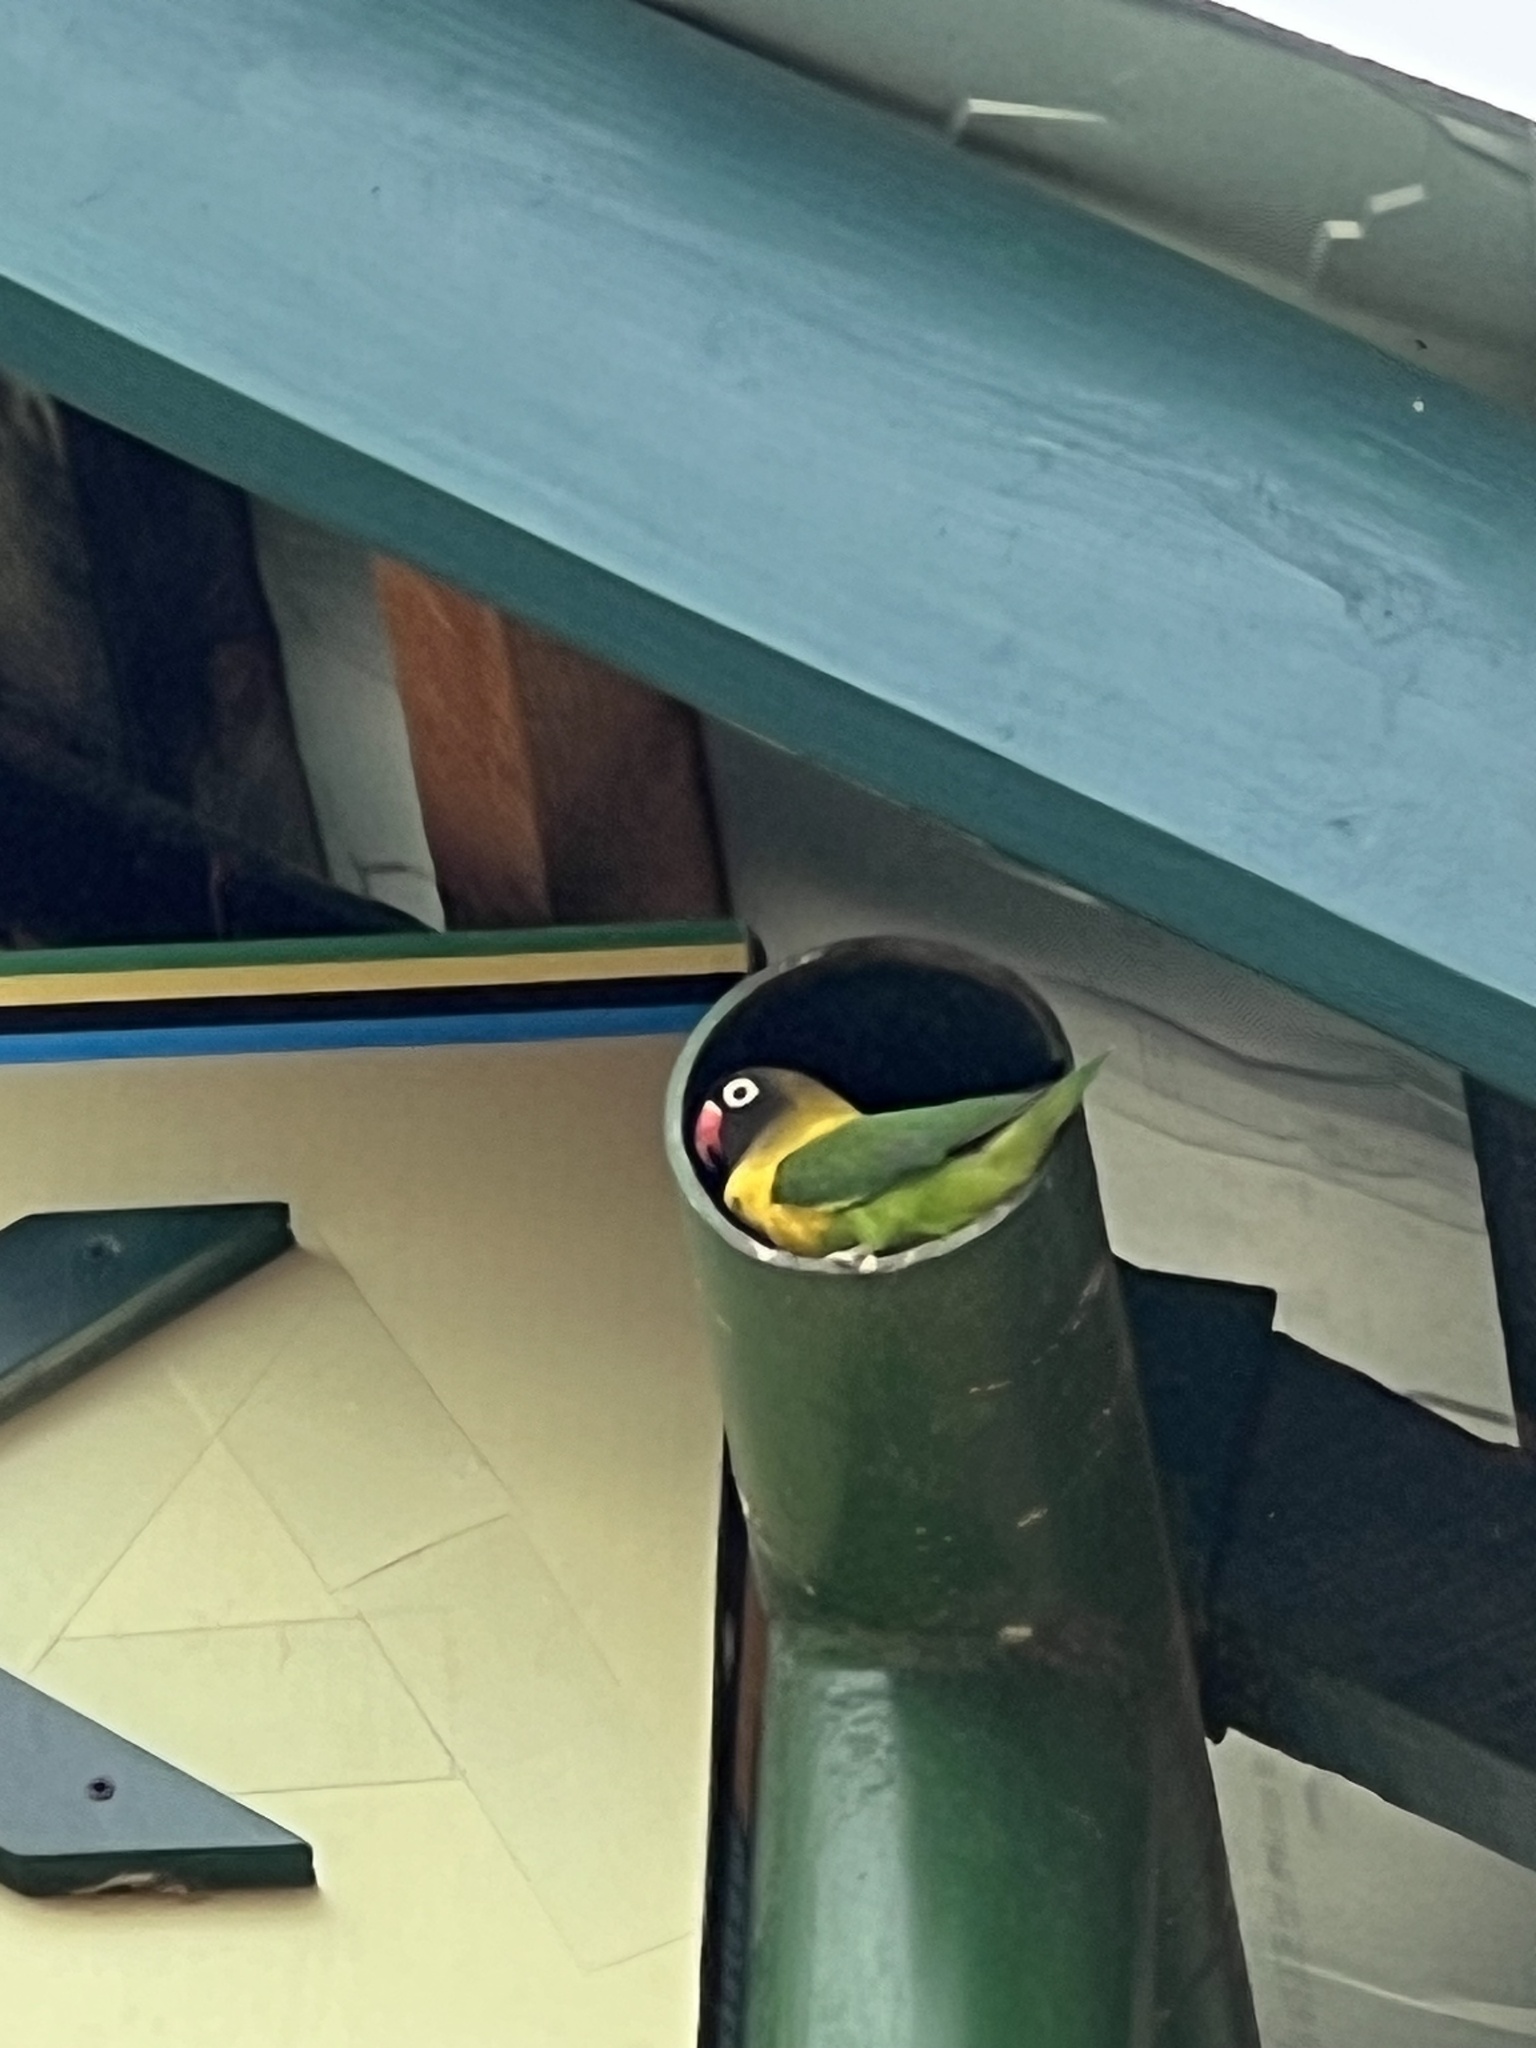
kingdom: Animalia
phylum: Chordata
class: Aves
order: Psittaciformes
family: Psittacidae
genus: Agapornis
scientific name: Agapornis personatus
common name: Yellow-collared lovebird
